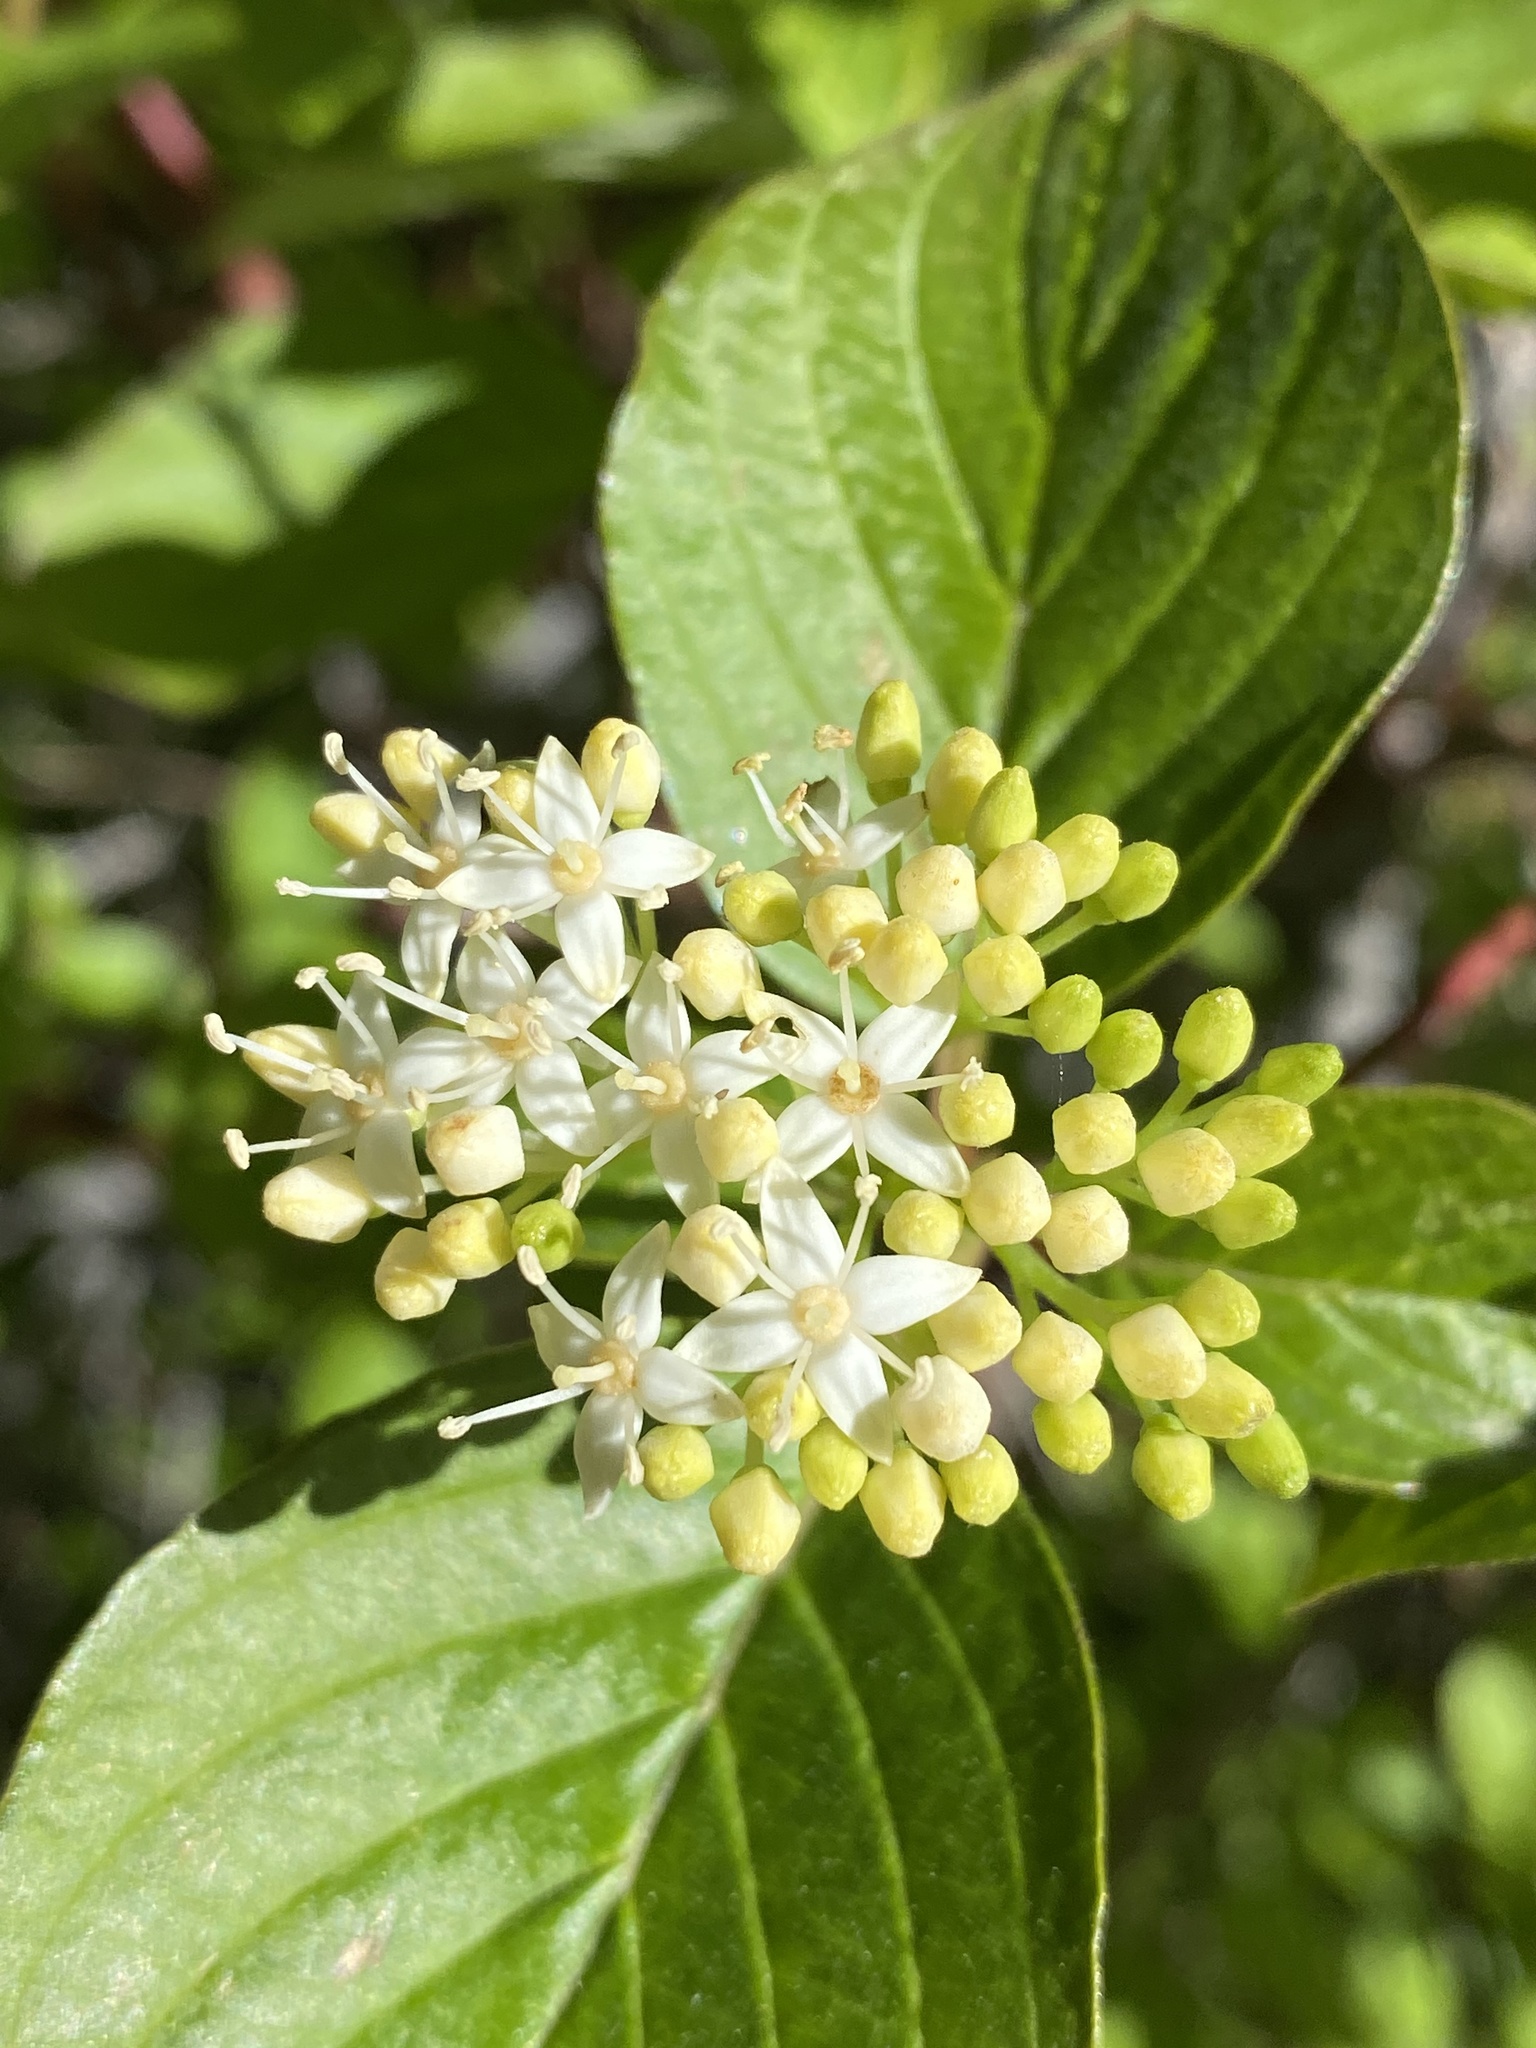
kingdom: Plantae
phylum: Tracheophyta
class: Magnoliopsida
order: Cornales
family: Cornaceae
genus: Cornus
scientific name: Cornus sericea
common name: Red-osier dogwood
